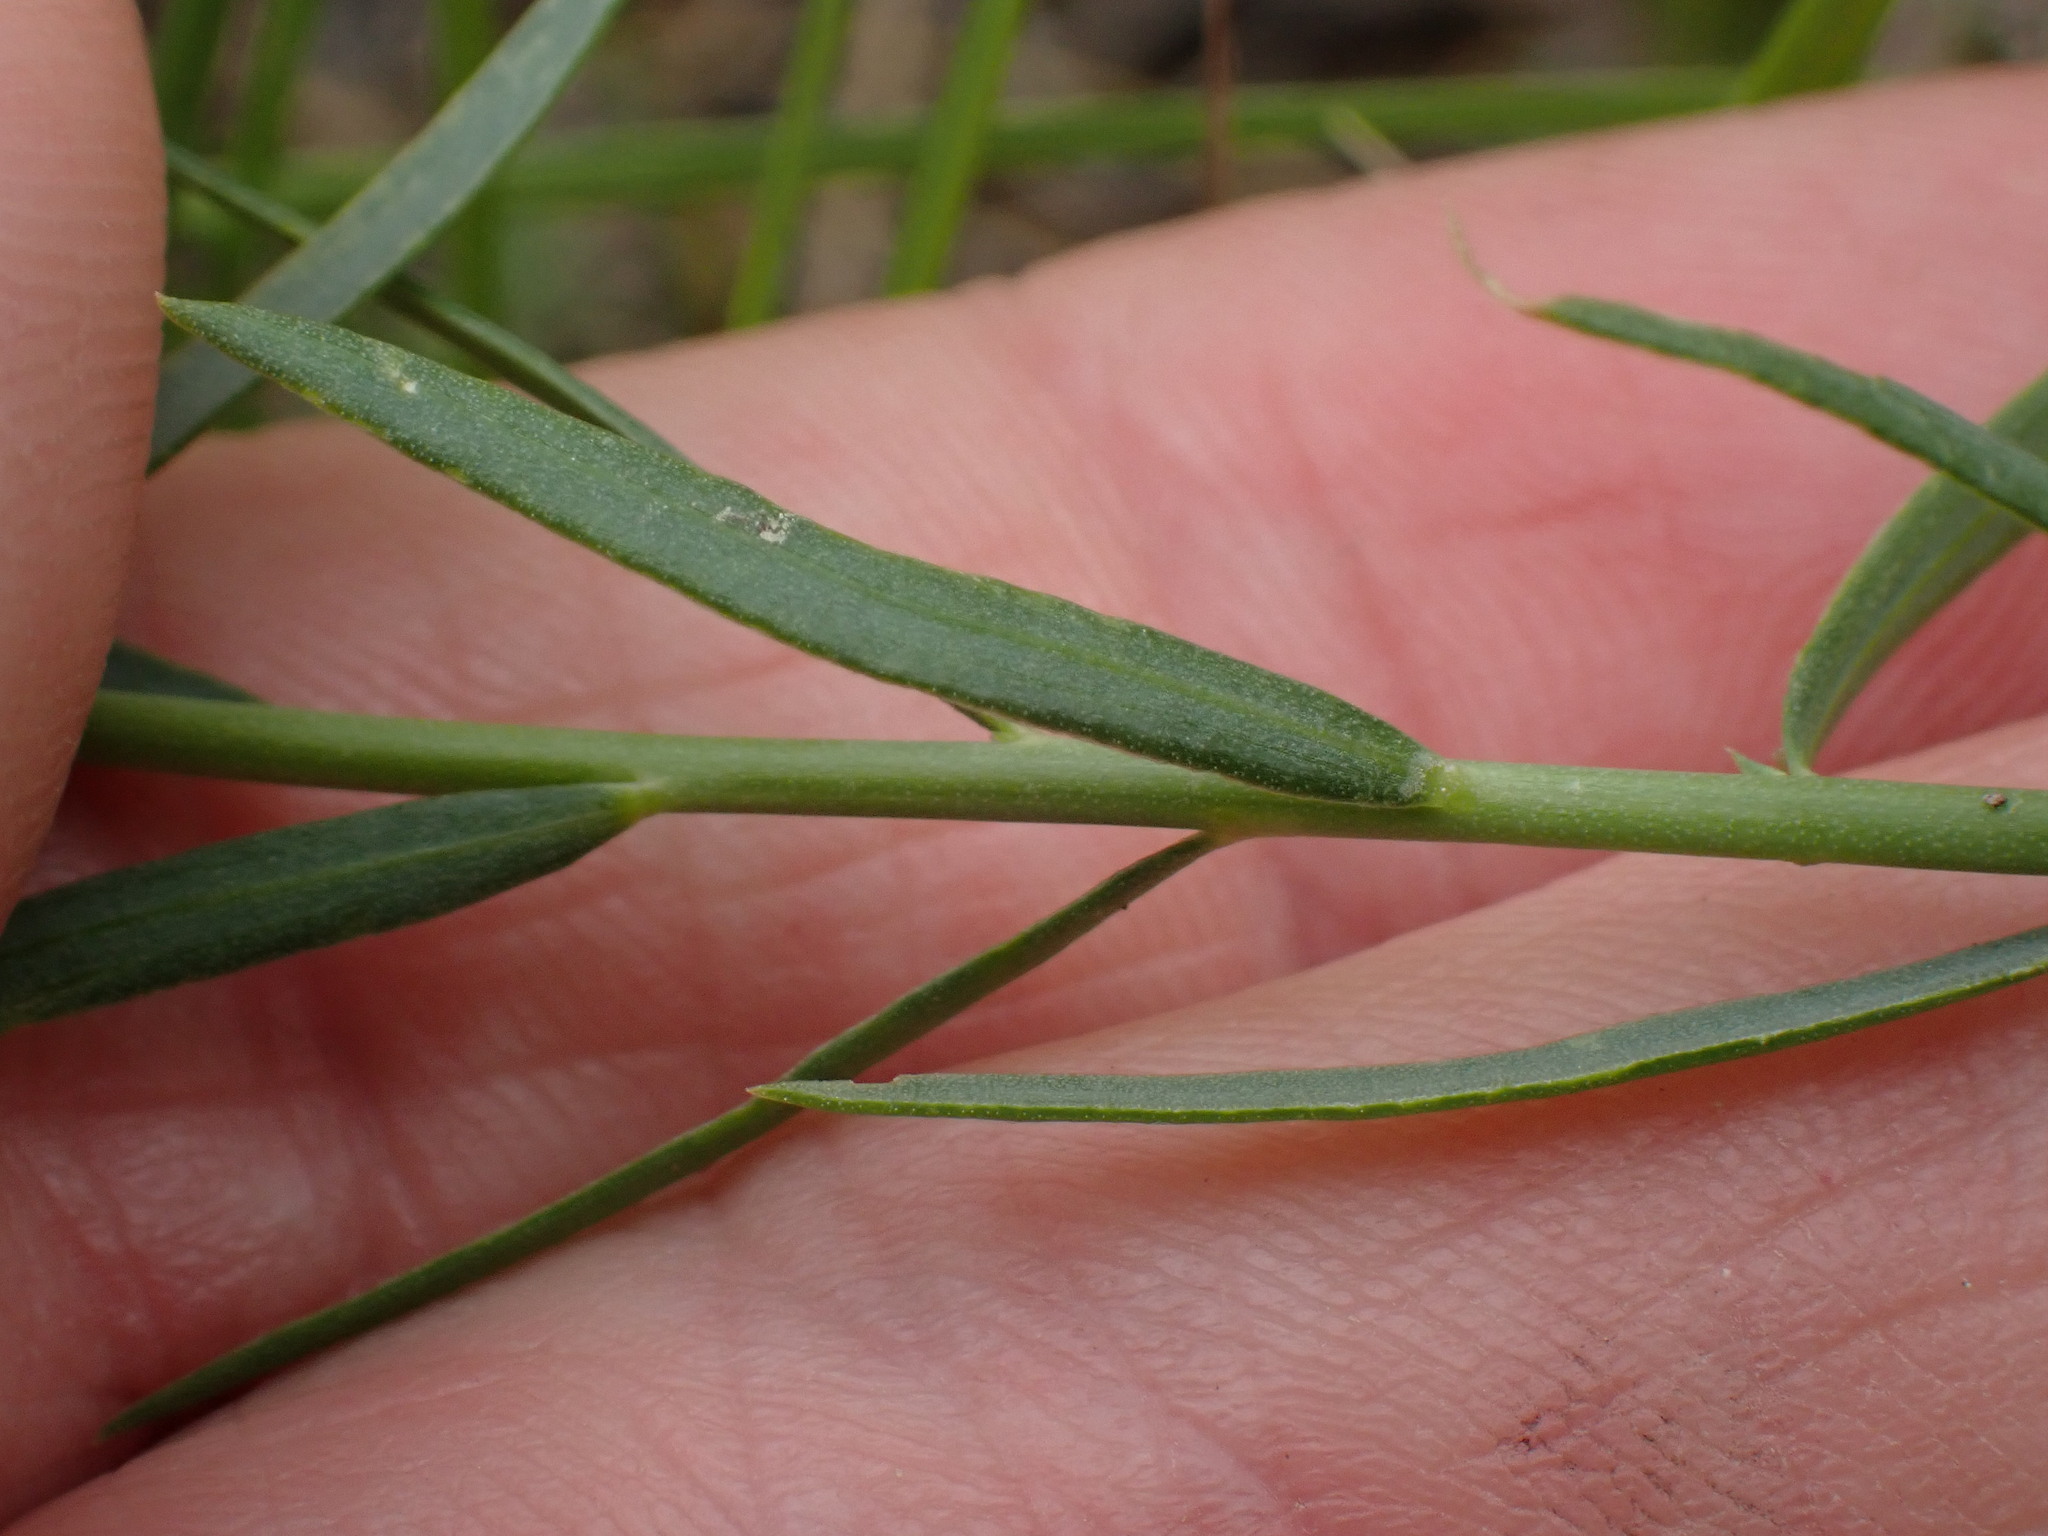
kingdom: Plantae
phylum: Tracheophyta
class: Magnoliopsida
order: Malpighiales
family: Linaceae
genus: Linum
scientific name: Linum lewisii
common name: Prairie flax
